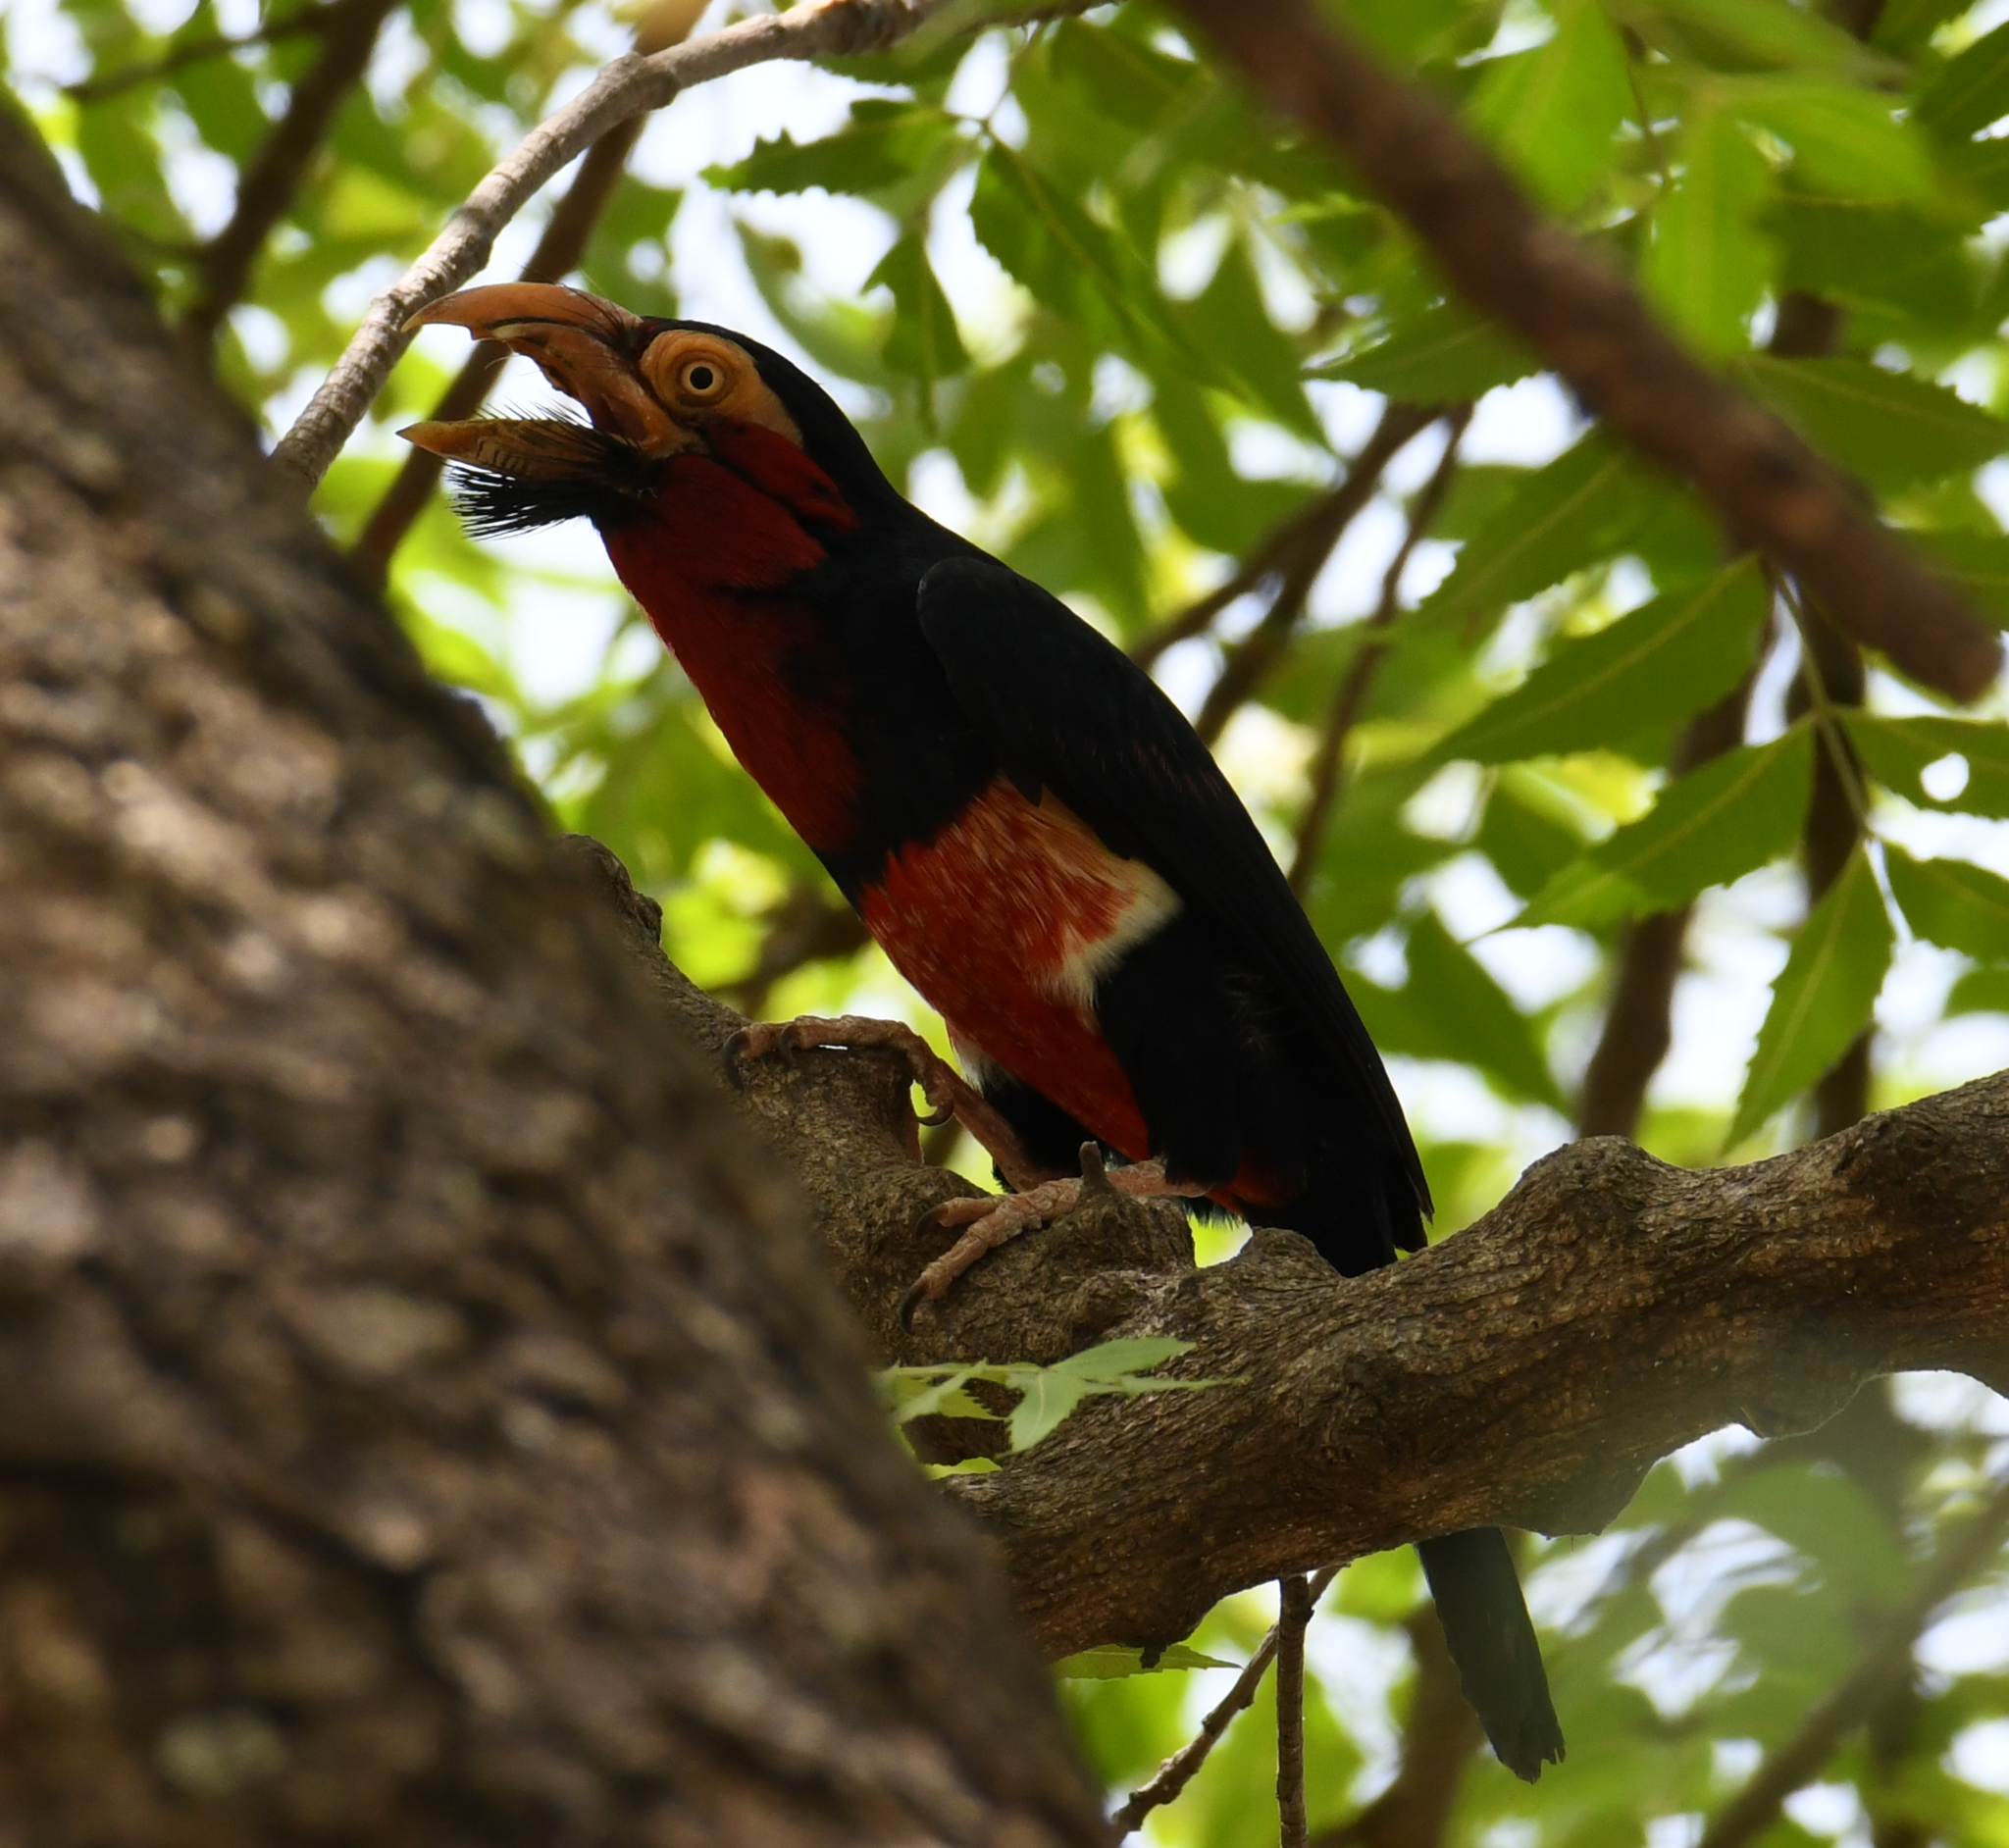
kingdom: Animalia
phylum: Chordata
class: Aves
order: Piciformes
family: Lybiidae
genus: Lybius
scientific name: Lybius dubius
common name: Bearded barbet
